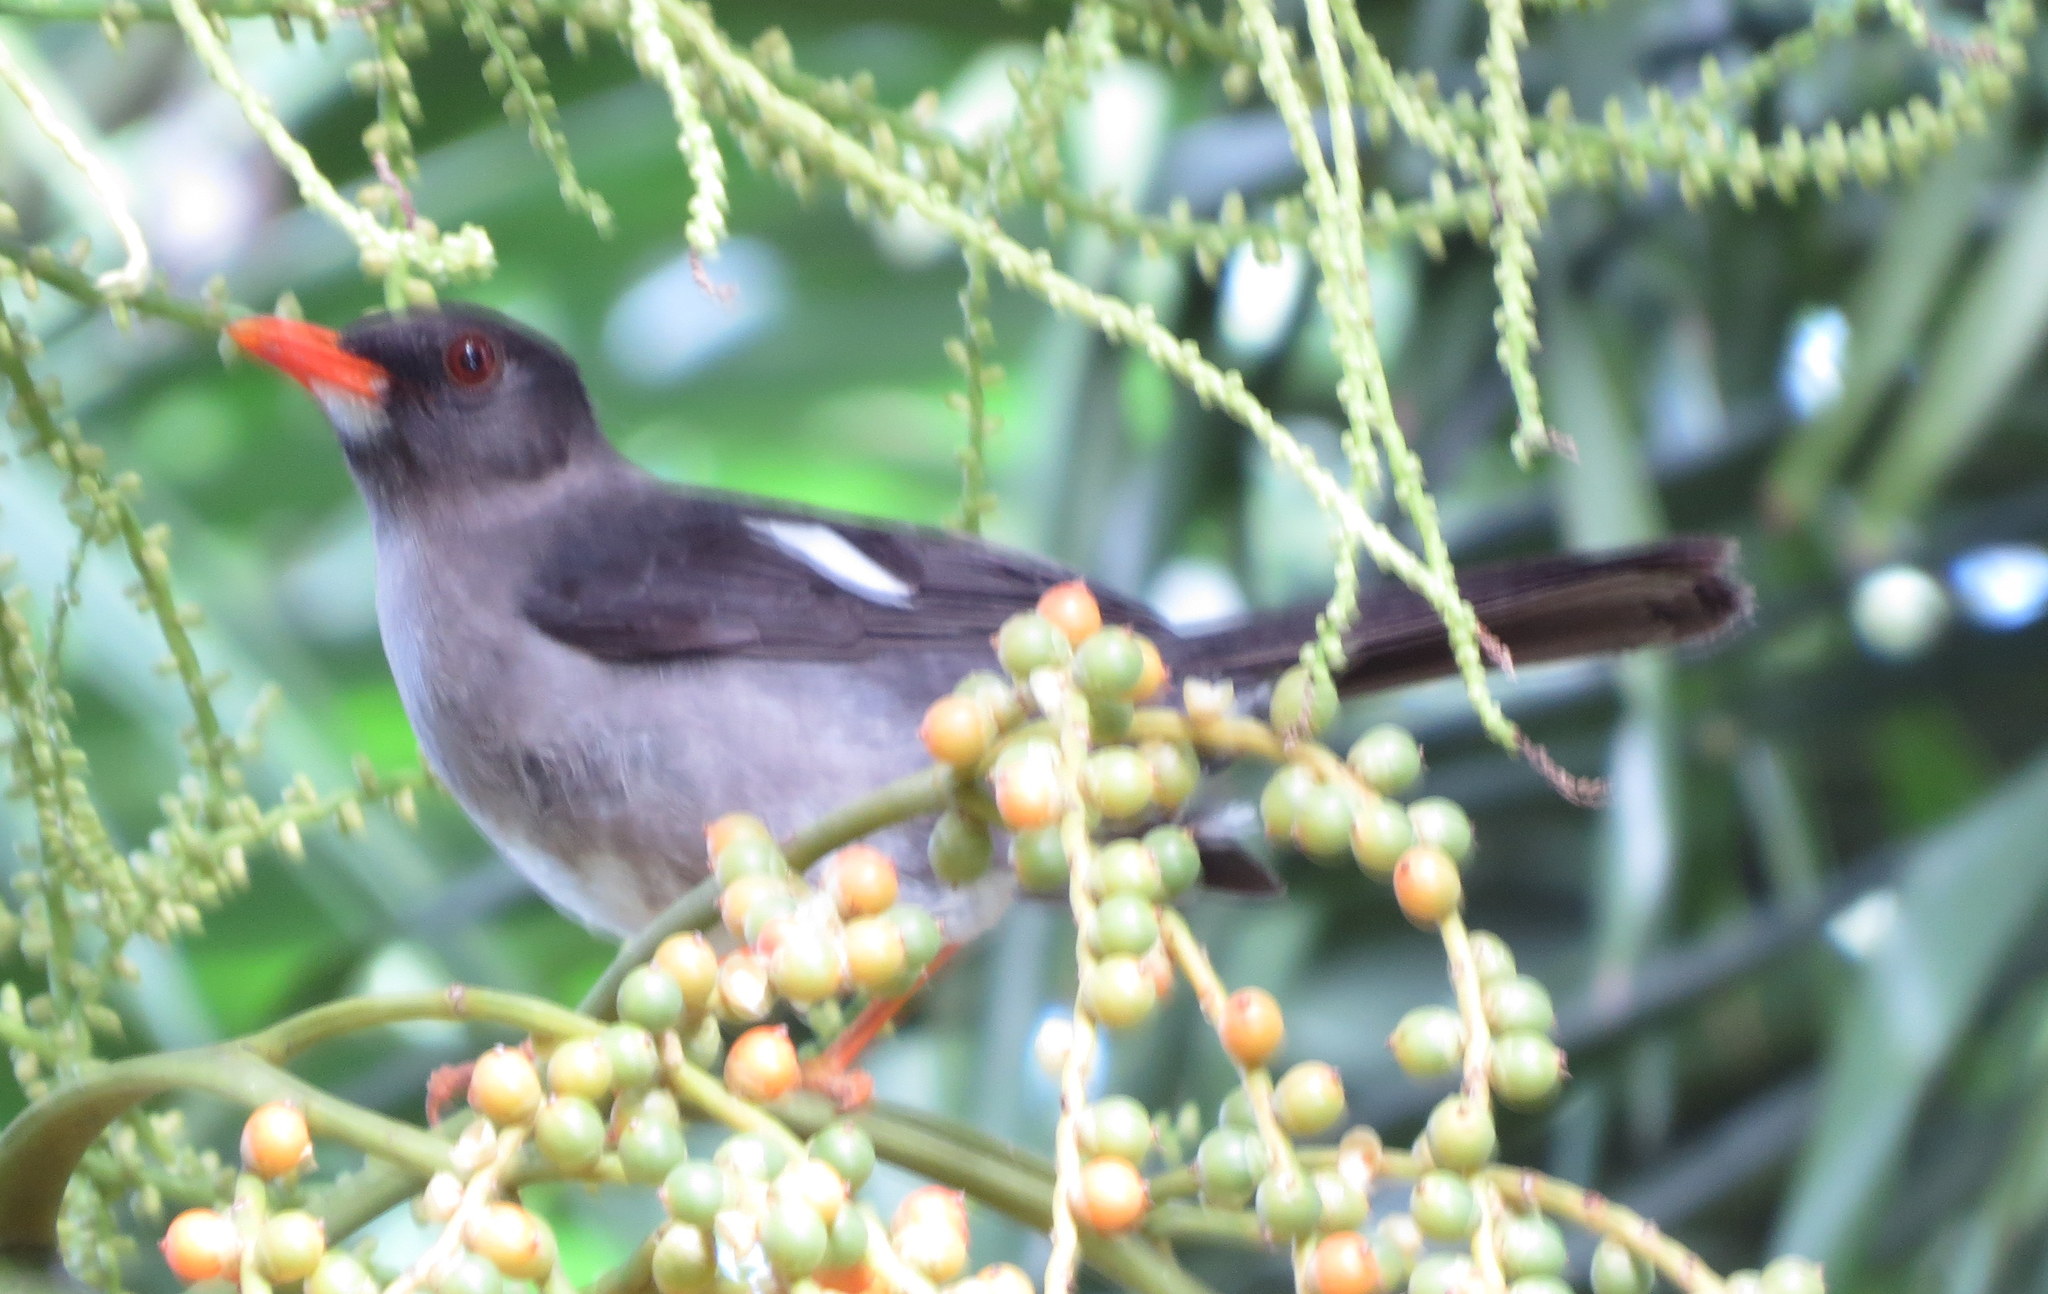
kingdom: Animalia
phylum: Chordata
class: Aves
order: Passeriformes
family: Turdidae
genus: Turdus
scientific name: Turdus aurantius
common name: White-chinned thrush
